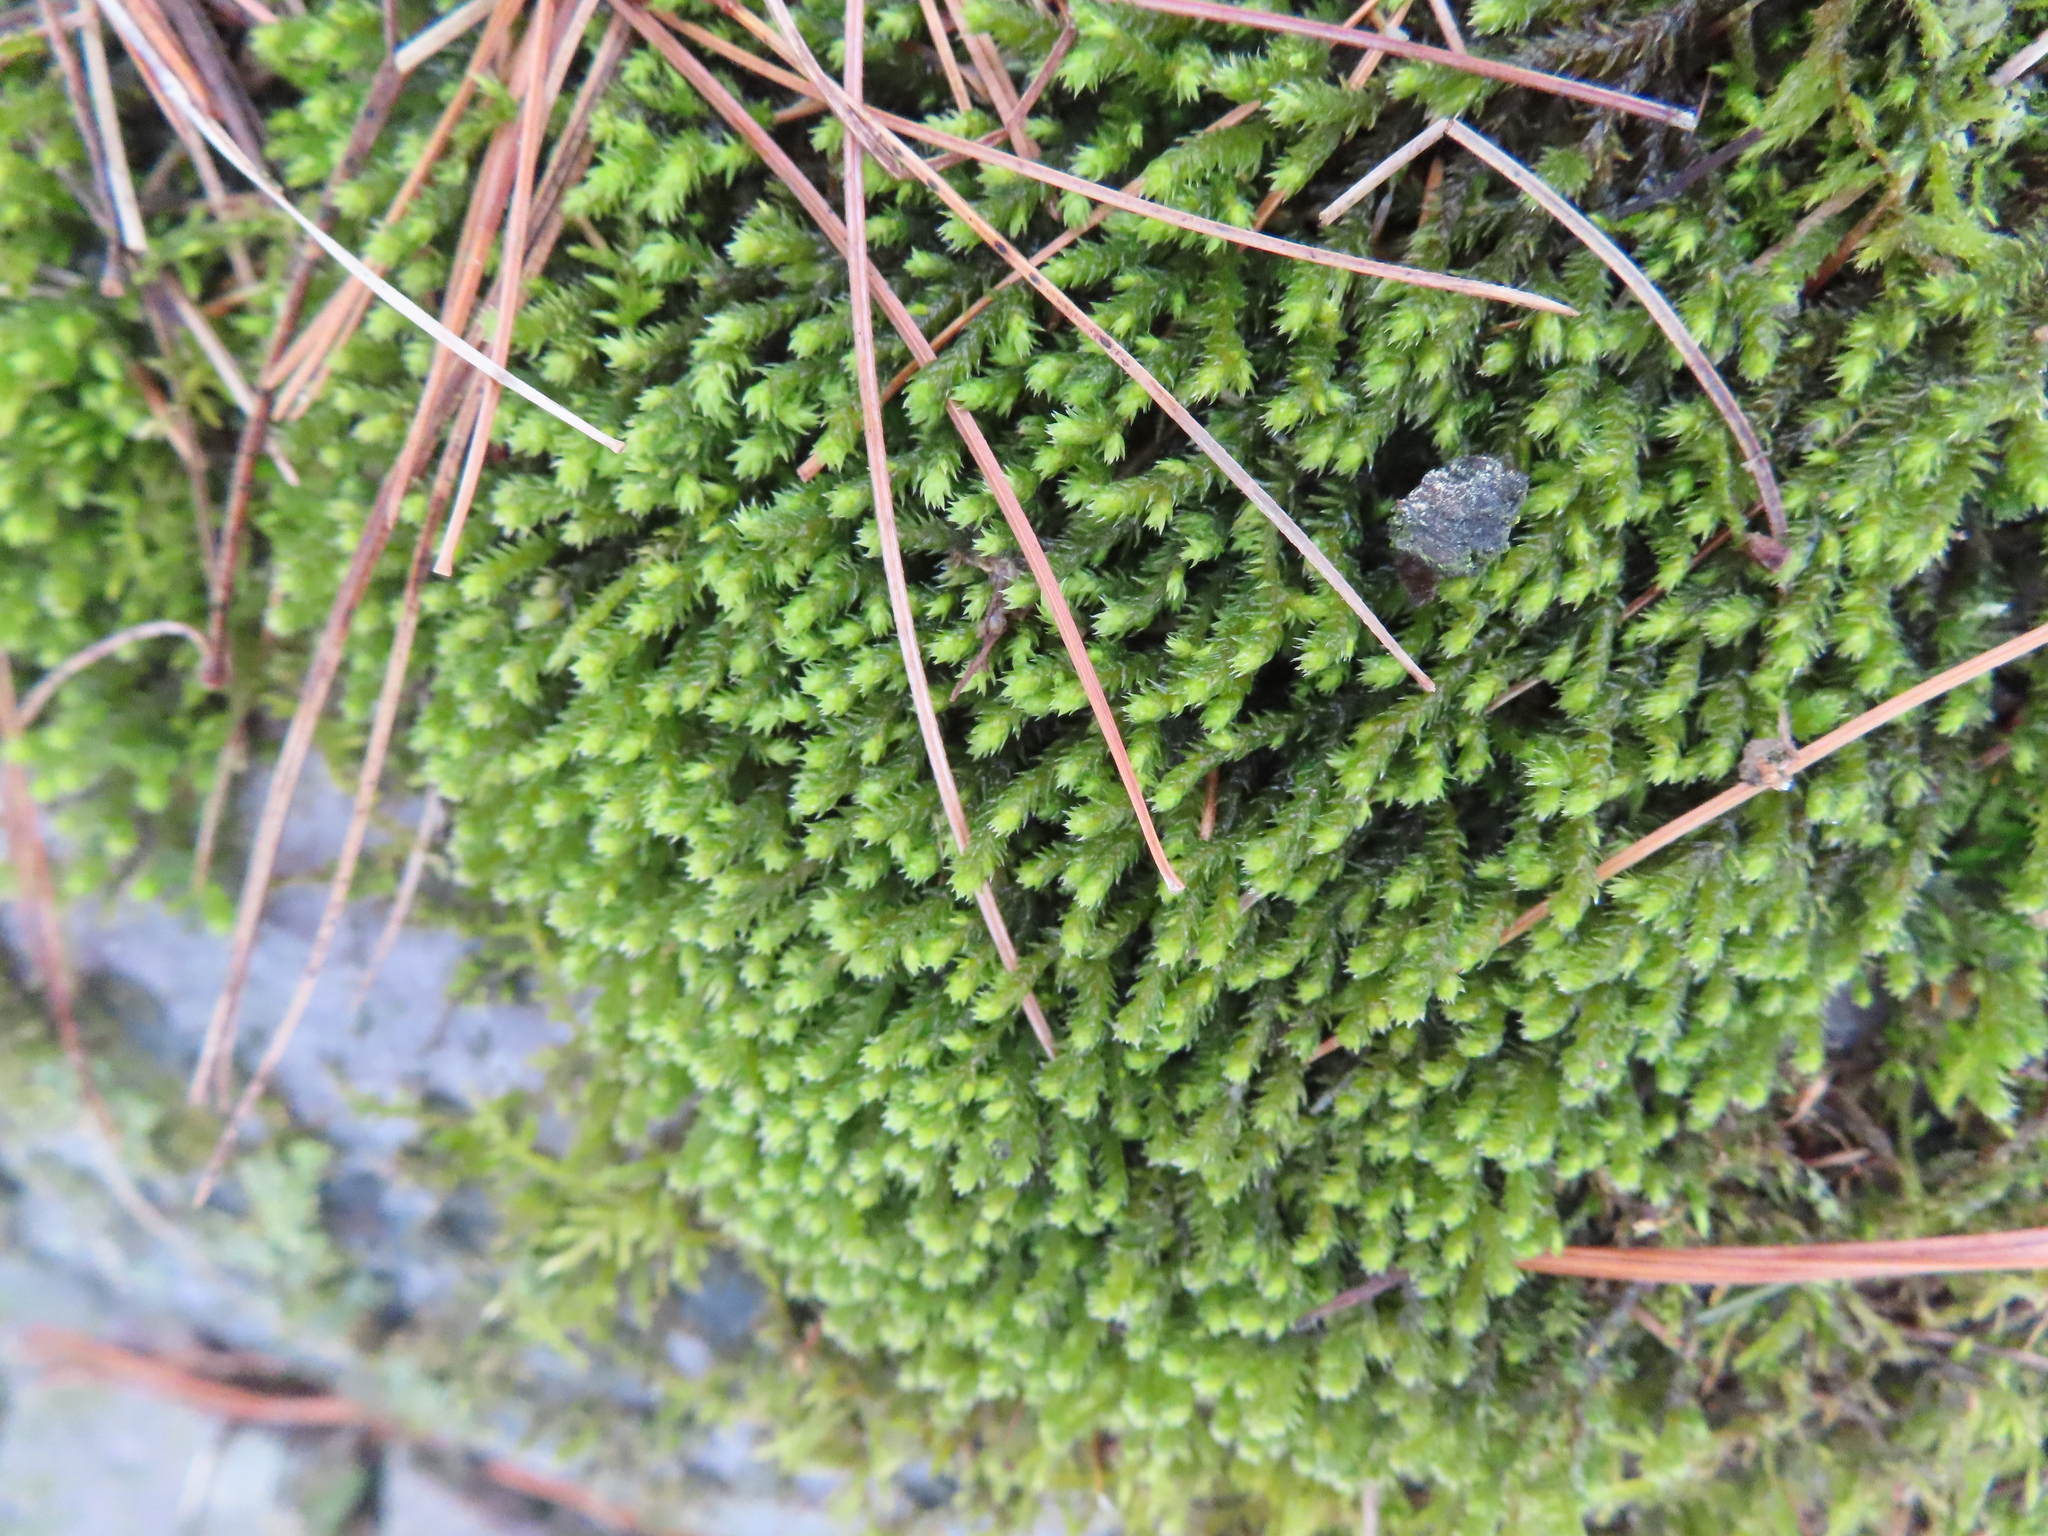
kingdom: Plantae
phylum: Bryophyta
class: Bryopsida
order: Hedwigiales
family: Hedwigiaceae
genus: Hedwigia
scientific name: Hedwigia ciliata
